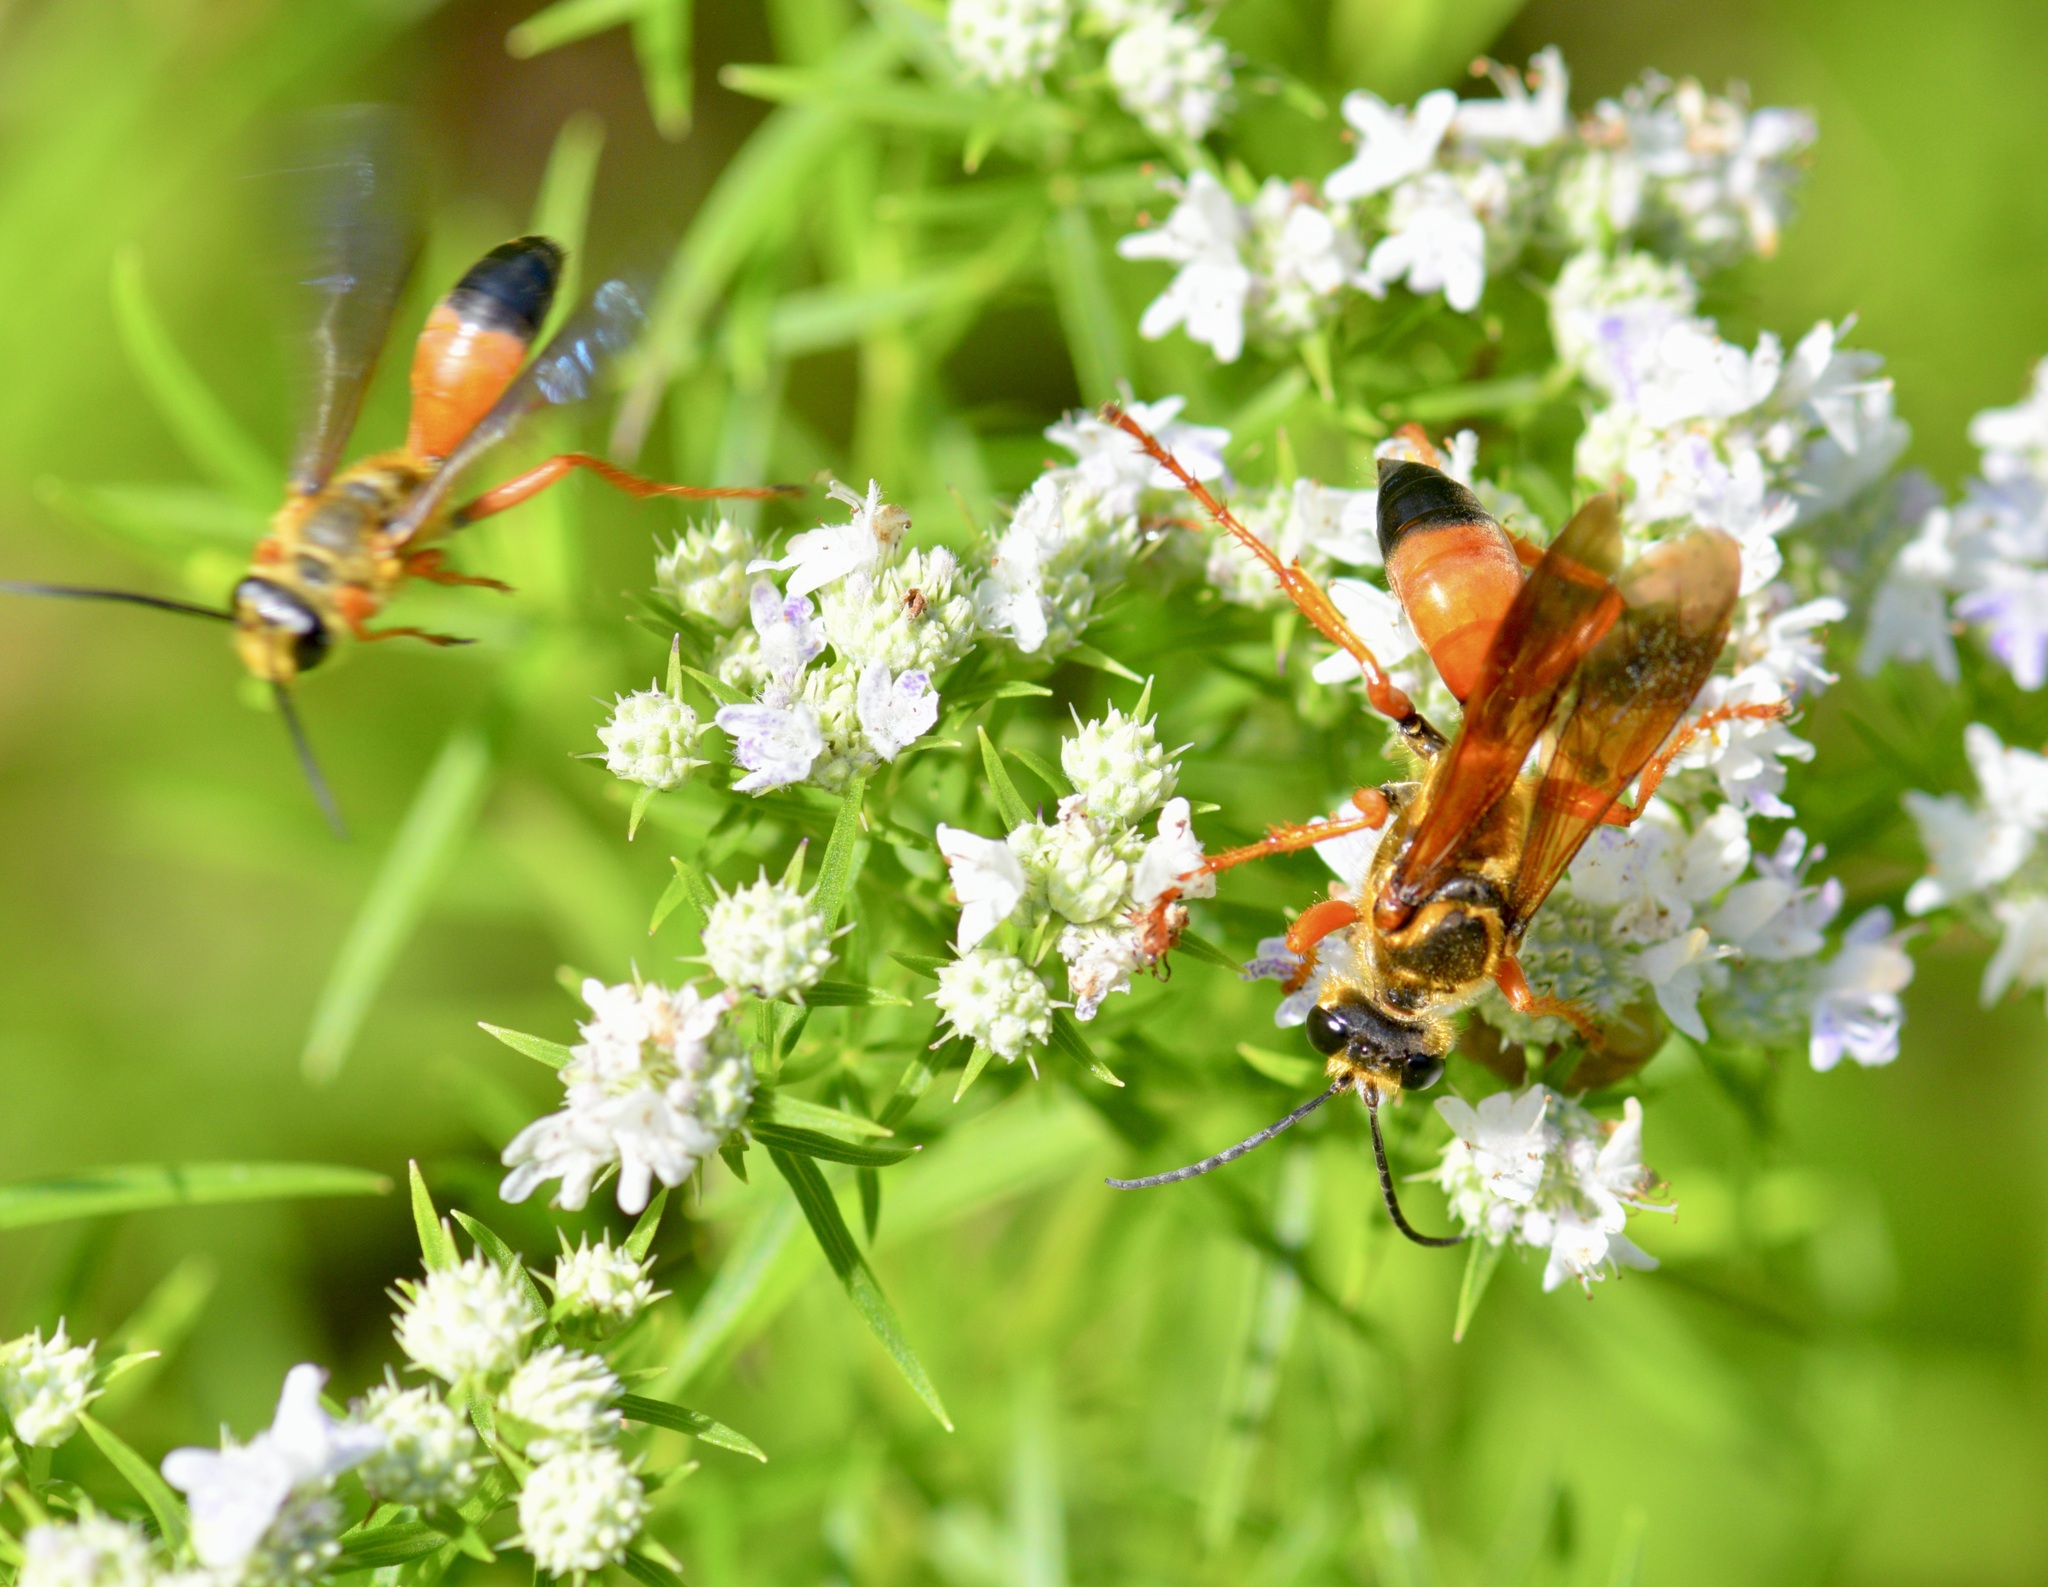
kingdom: Animalia
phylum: Arthropoda
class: Insecta
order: Hymenoptera
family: Sphecidae
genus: Sphex
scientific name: Sphex ichneumoneus
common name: Great golden digger wasp
